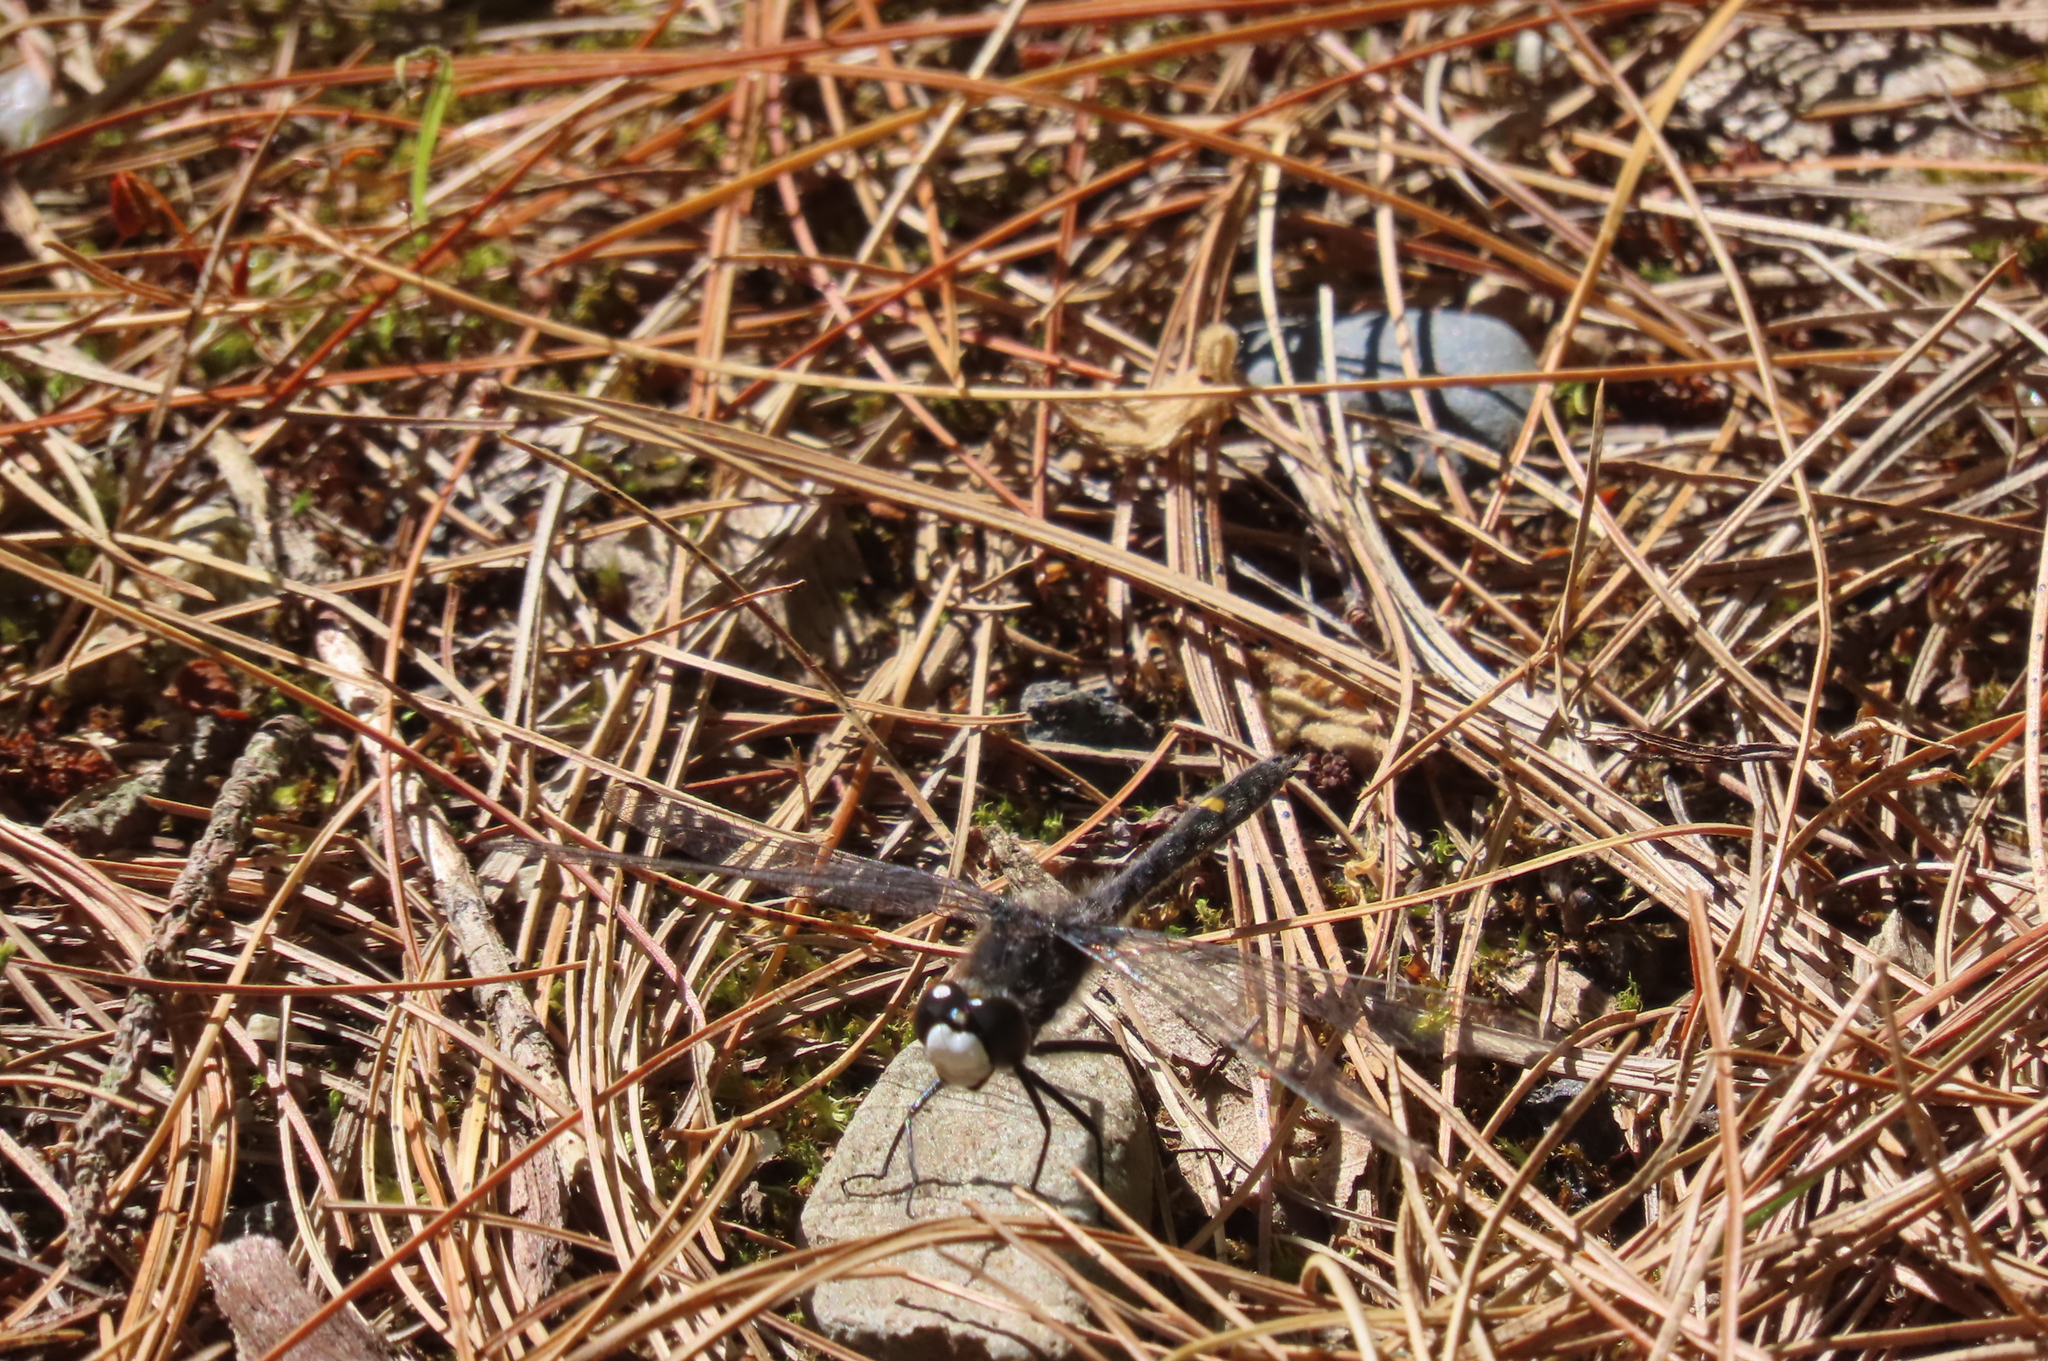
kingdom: Animalia
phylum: Arthropoda
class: Insecta
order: Odonata
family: Libellulidae
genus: Leucorrhinia
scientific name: Leucorrhinia intacta
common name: Dot-tailed whiteface
